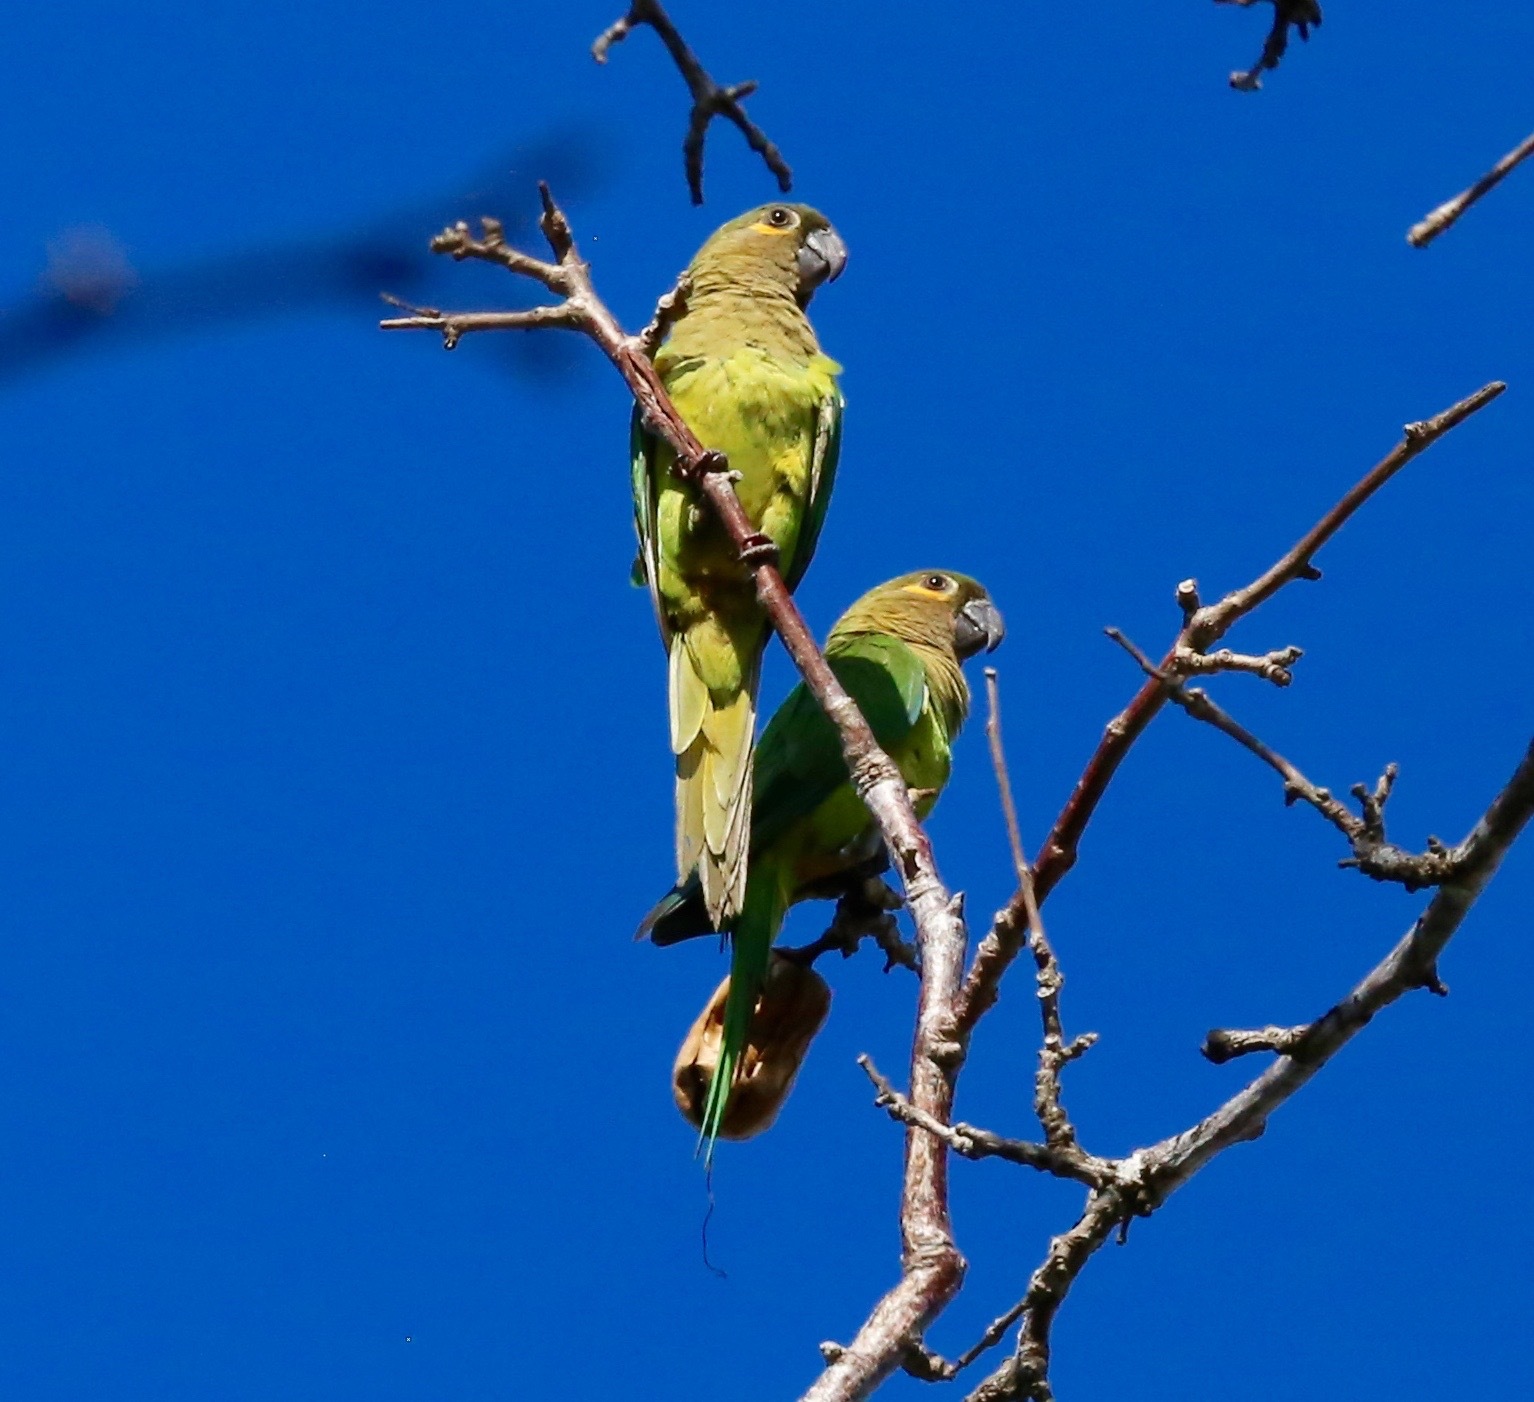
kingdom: Animalia
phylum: Chordata
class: Aves
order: Psittaciformes
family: Psittacidae
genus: Aratinga
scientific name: Aratinga pertinax
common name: Brown-throated parakeet
